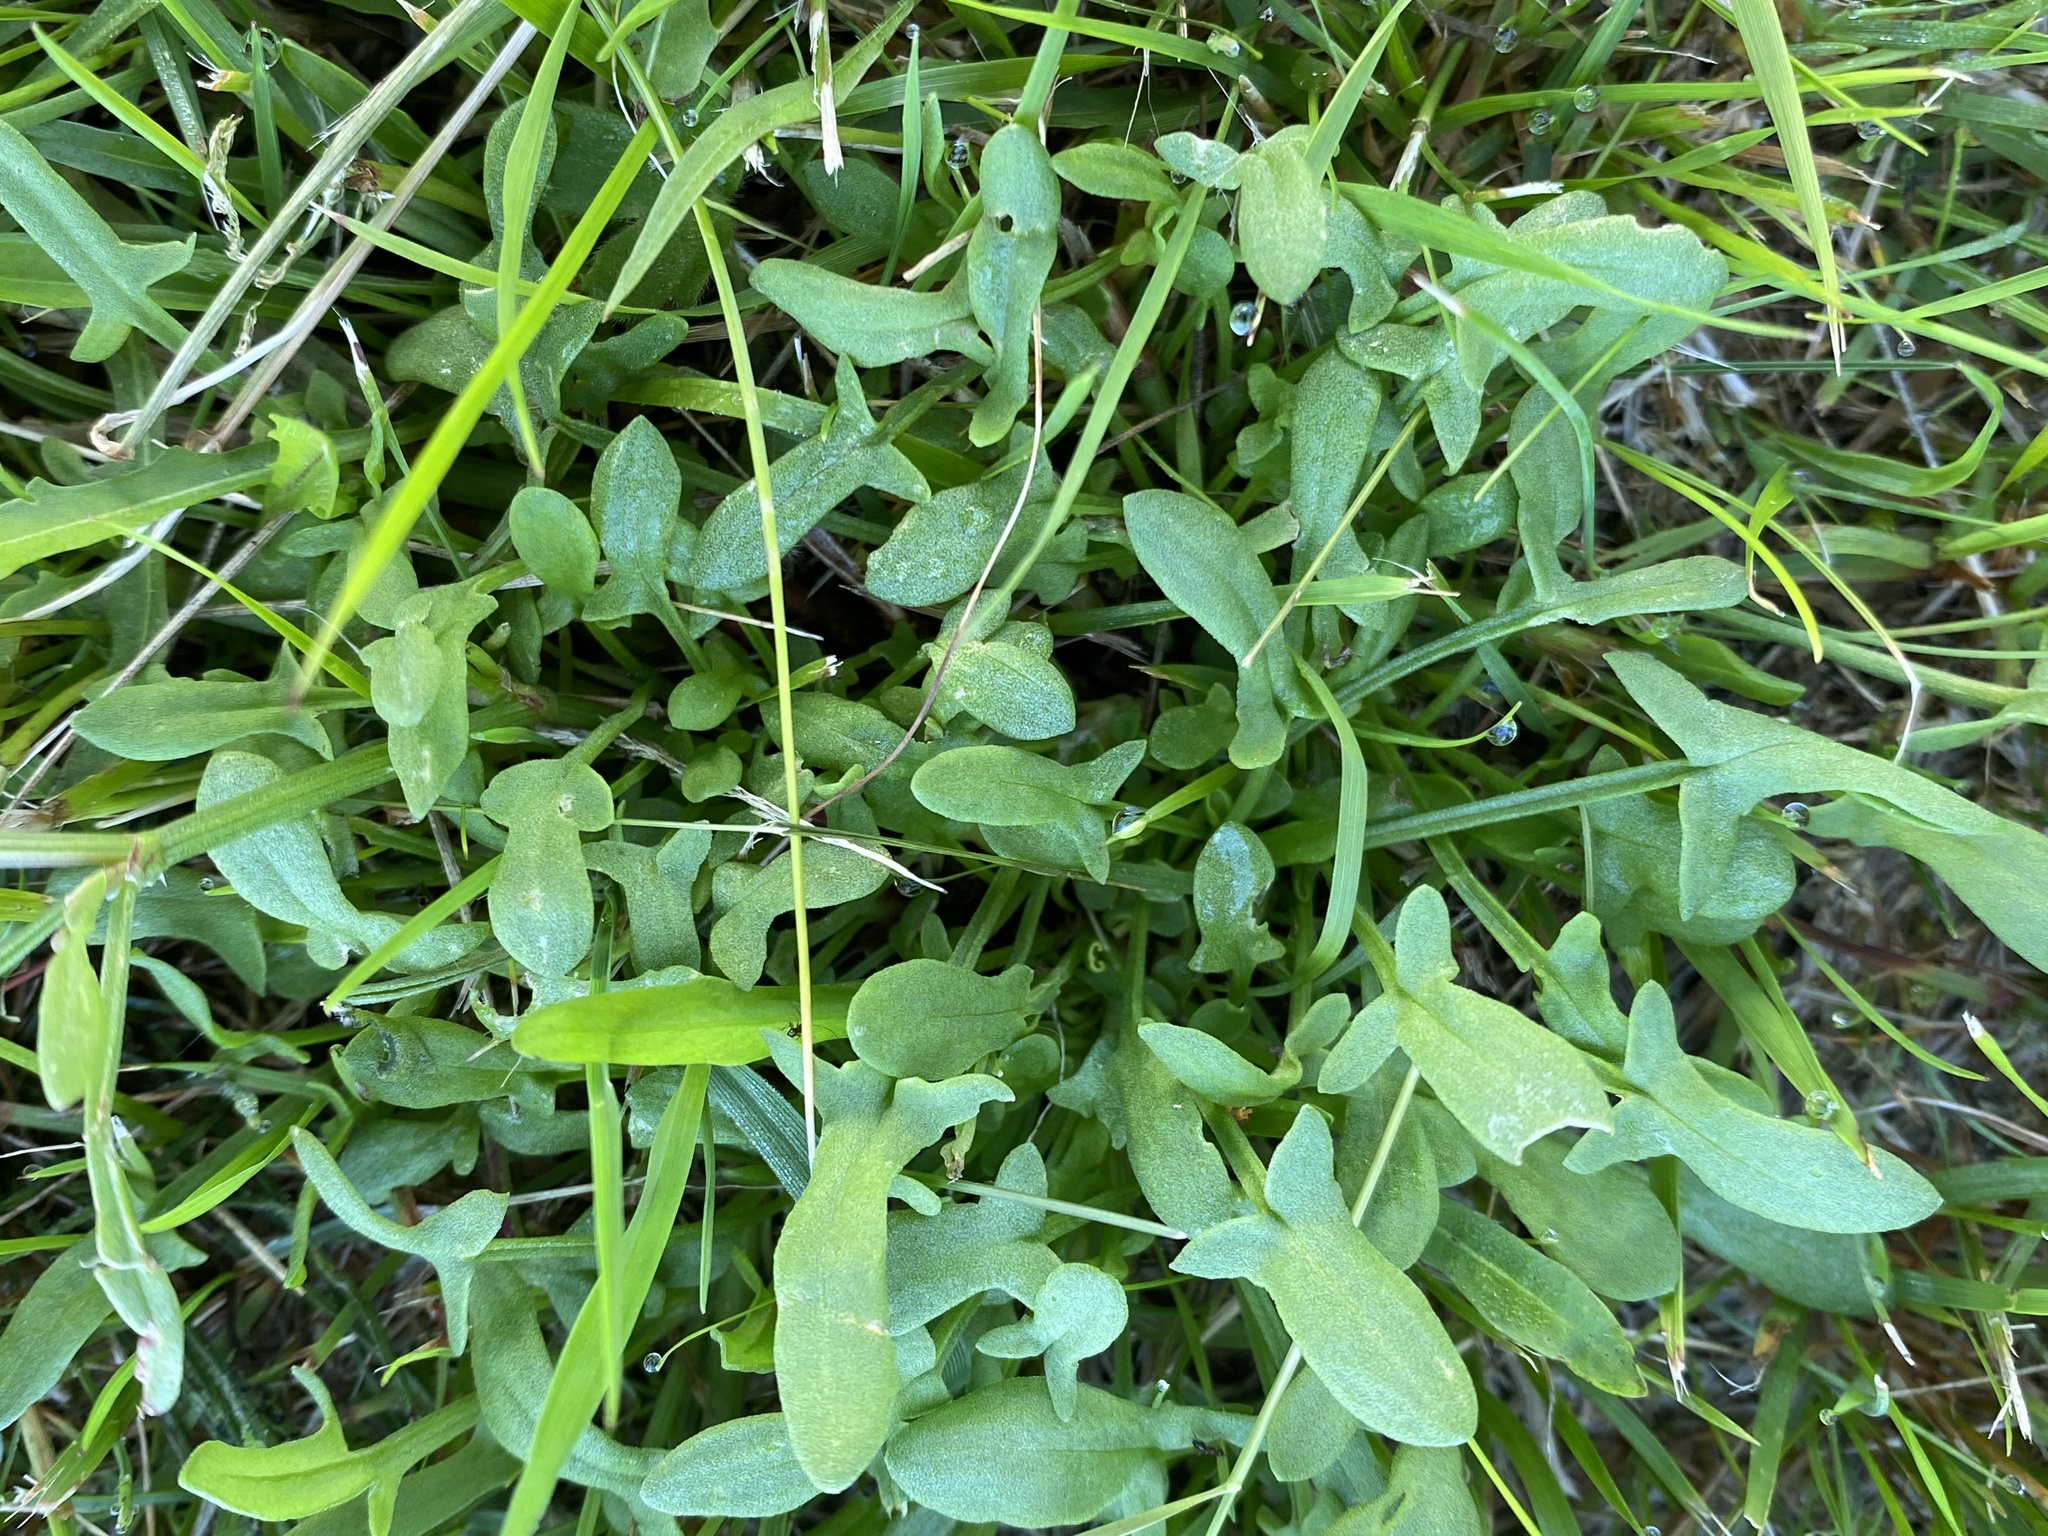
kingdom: Plantae
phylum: Tracheophyta
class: Magnoliopsida
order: Caryophyllales
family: Polygonaceae
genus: Rumex
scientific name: Rumex acetosella
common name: Common sheep sorrel
